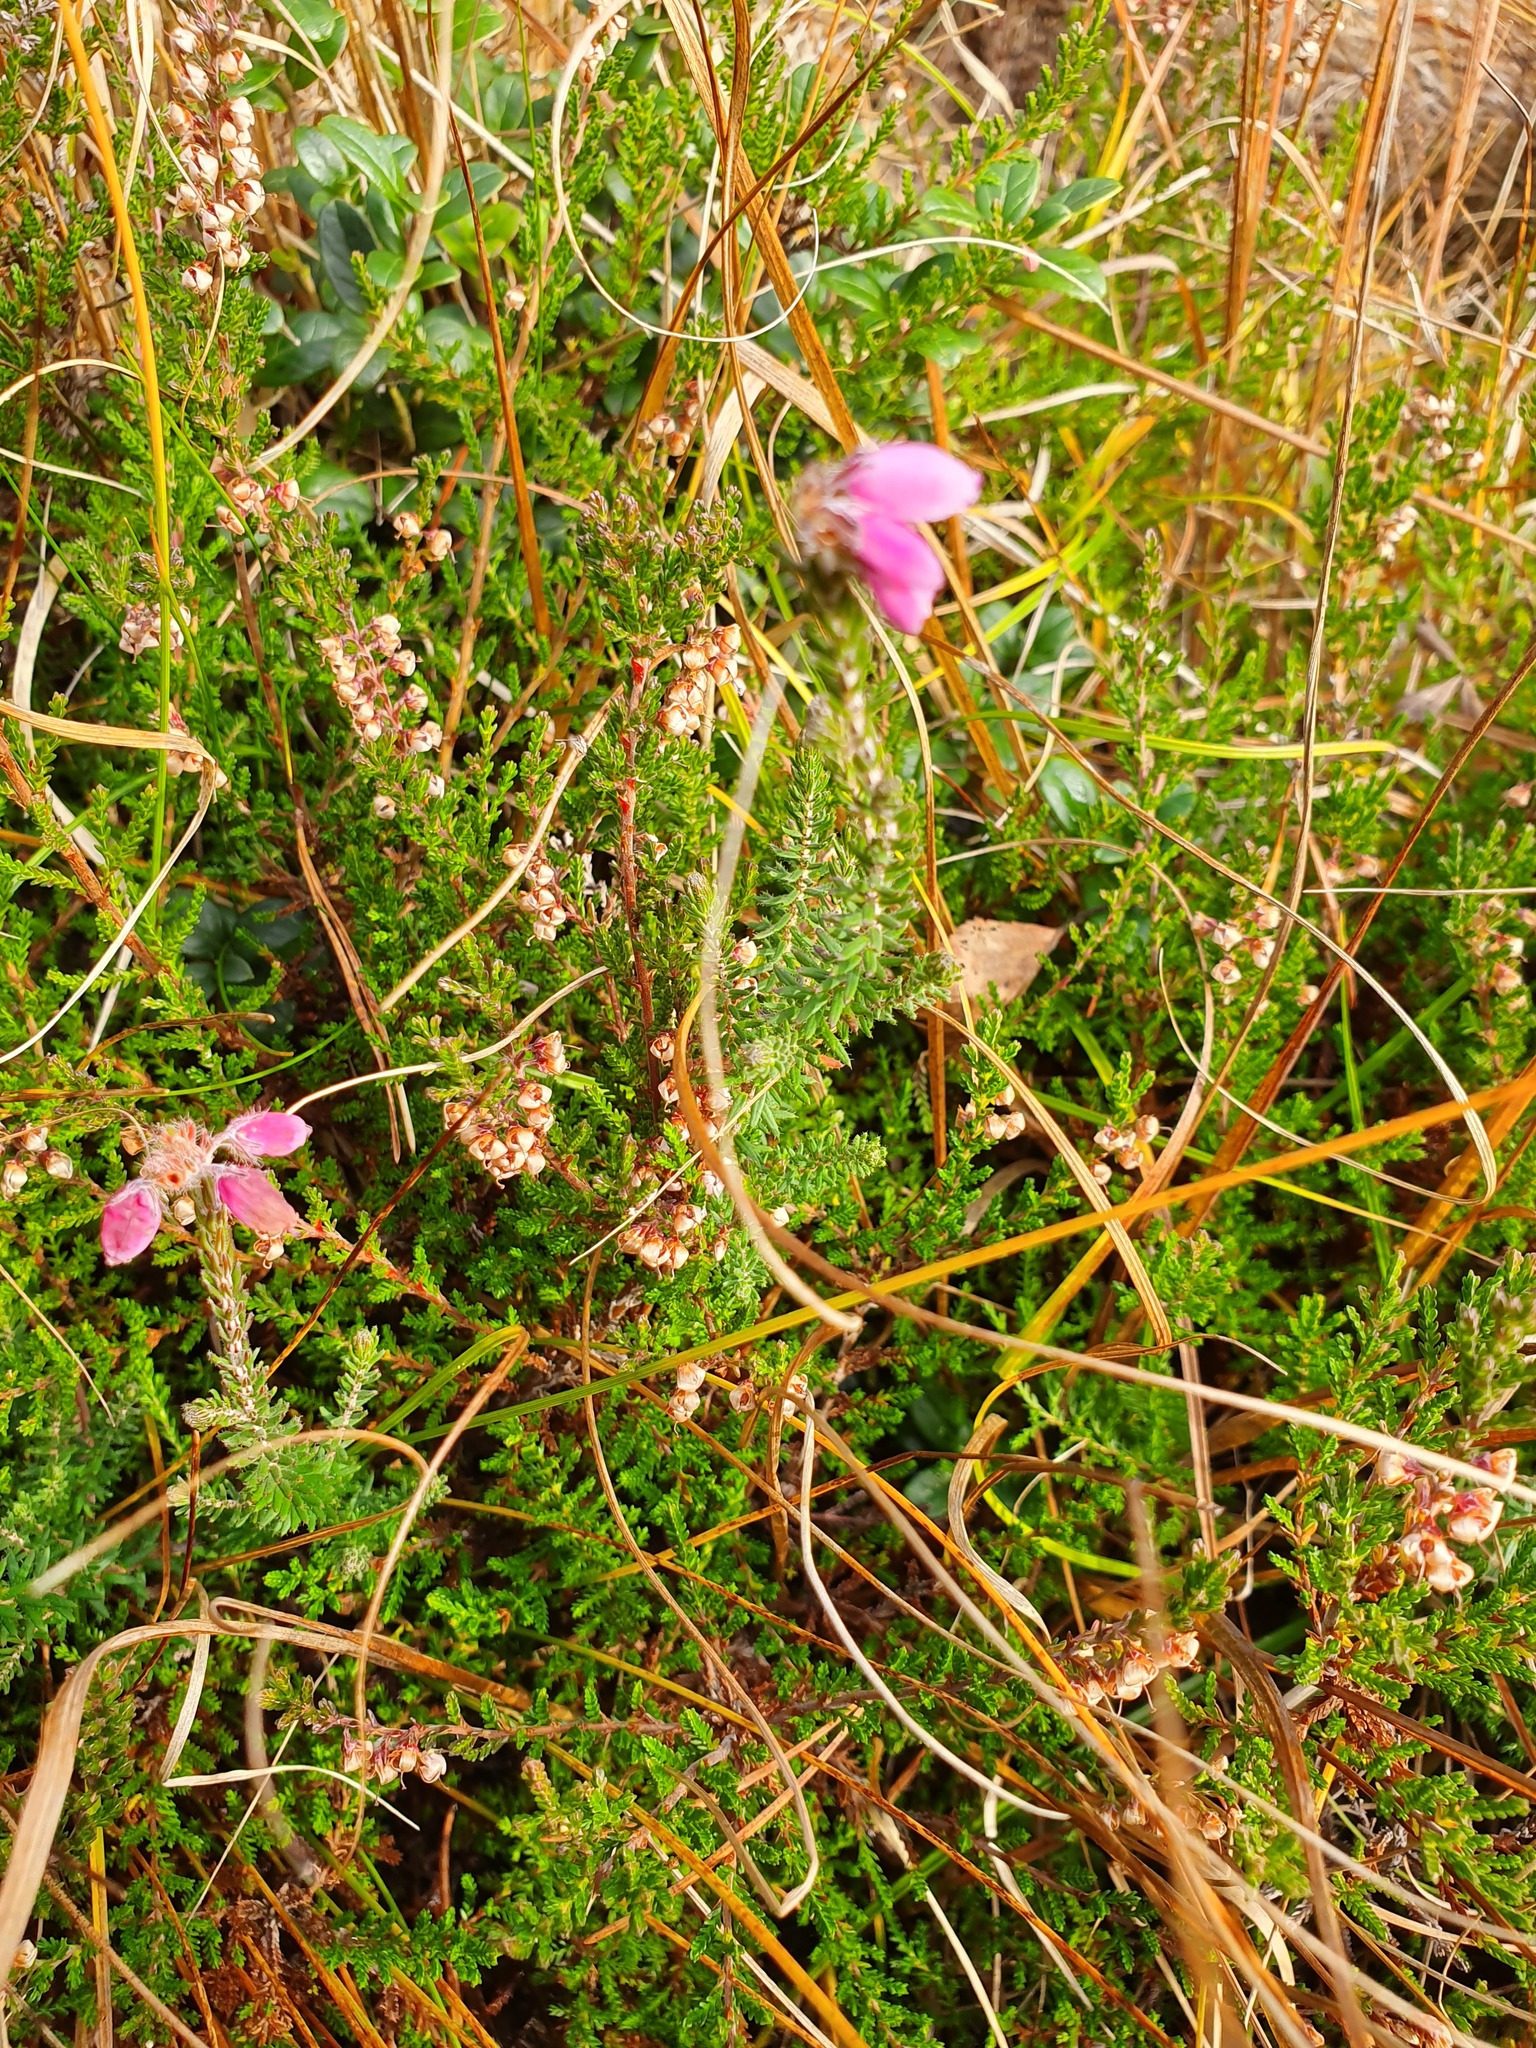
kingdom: Plantae
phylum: Tracheophyta
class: Magnoliopsida
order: Ericales
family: Ericaceae
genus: Erica
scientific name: Erica tetralix
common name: Cross-leaved heath
